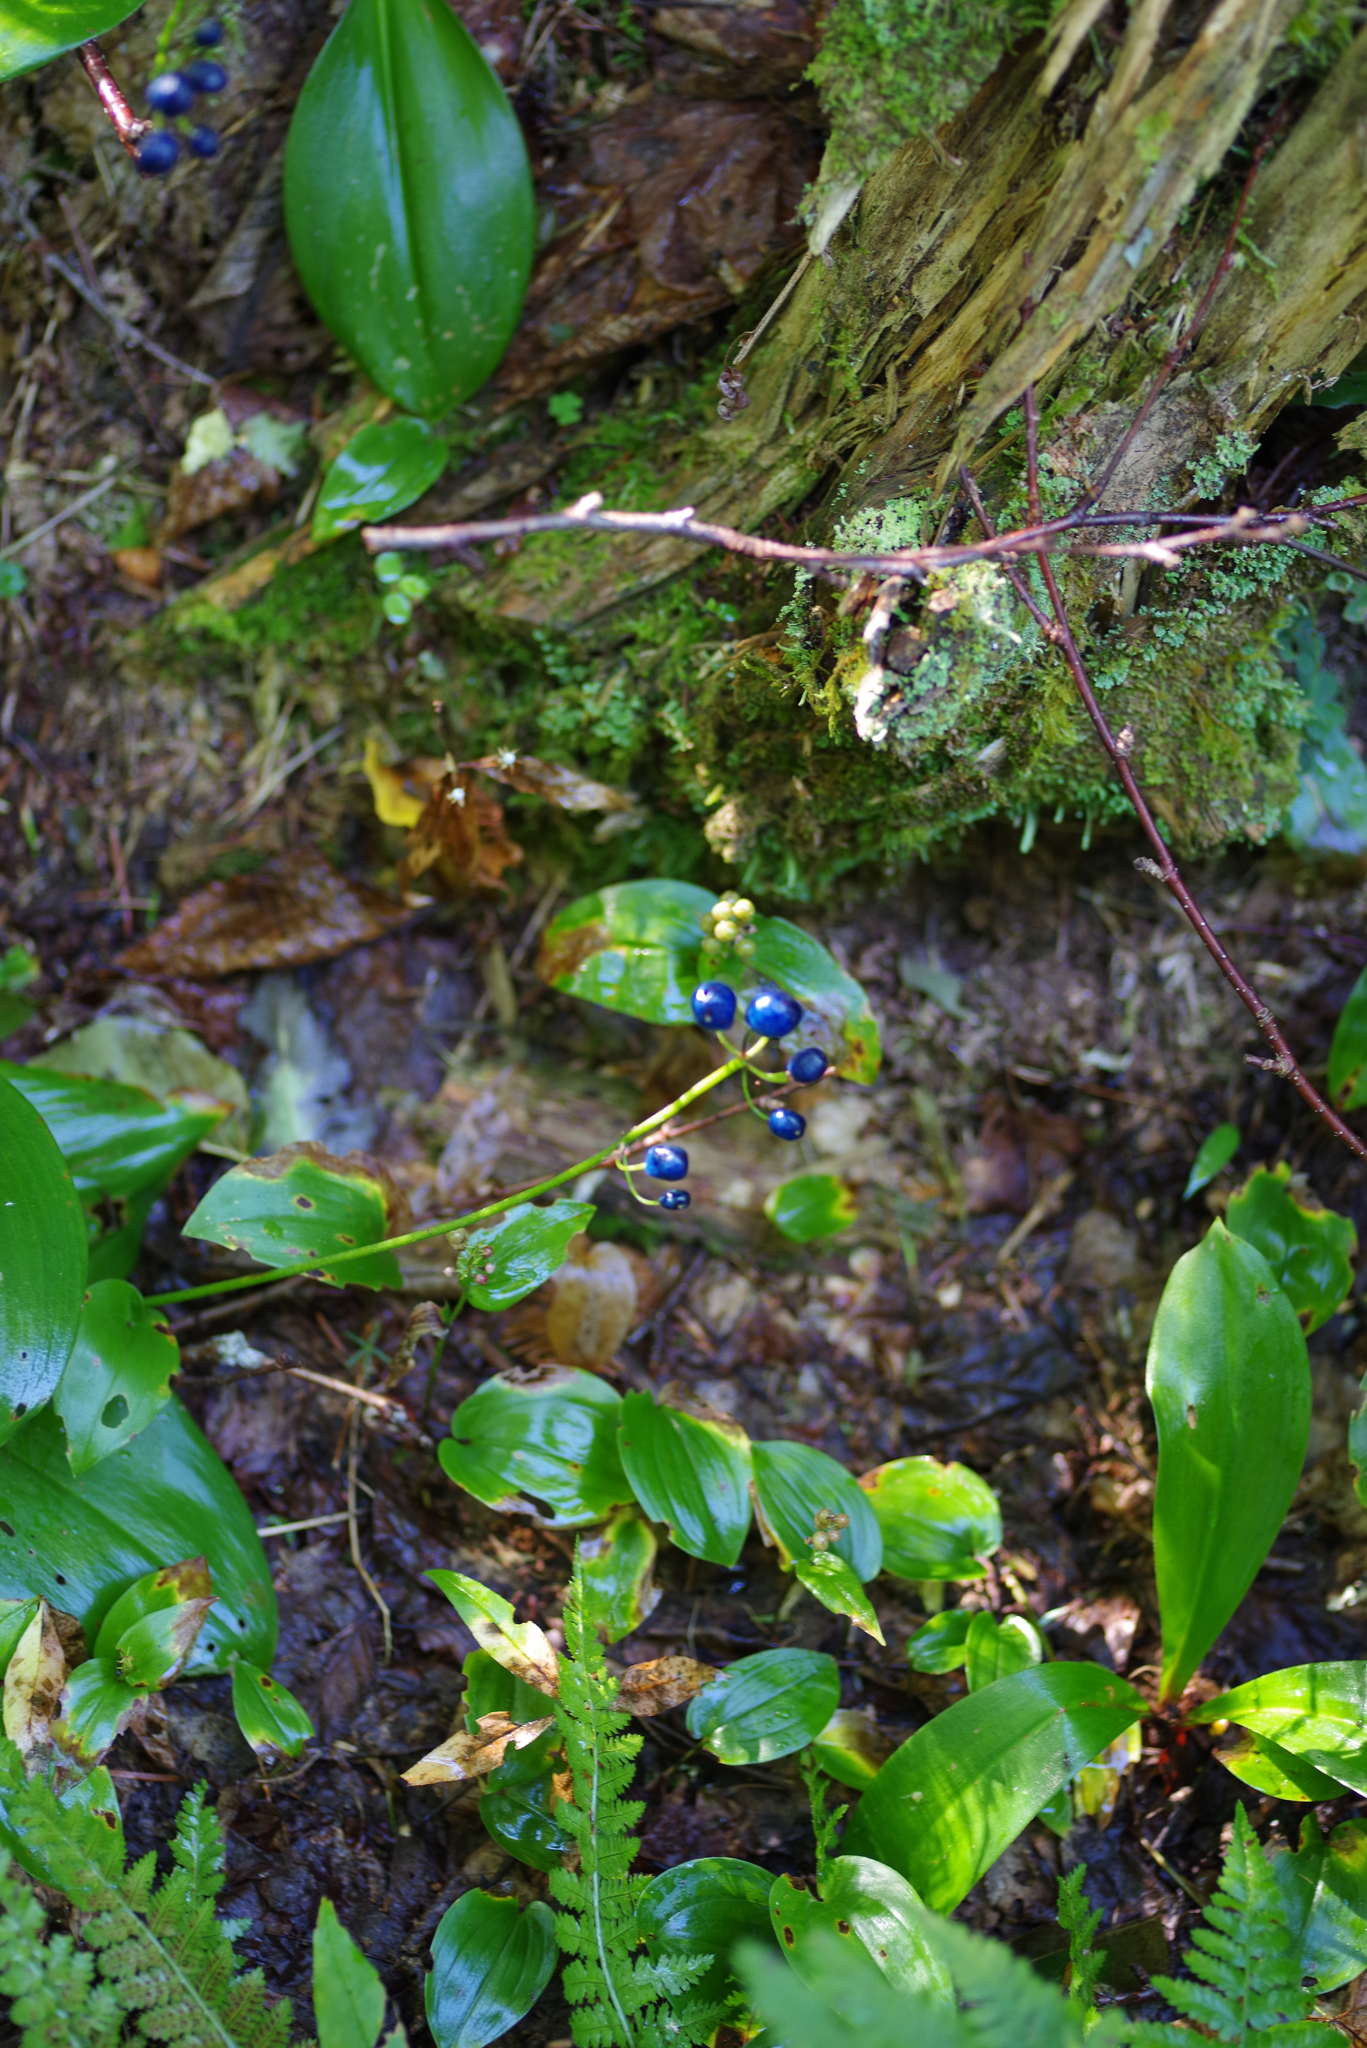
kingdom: Plantae
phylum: Tracheophyta
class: Liliopsida
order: Liliales
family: Liliaceae
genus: Clintonia
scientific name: Clintonia borealis
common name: Yellow clintonia
